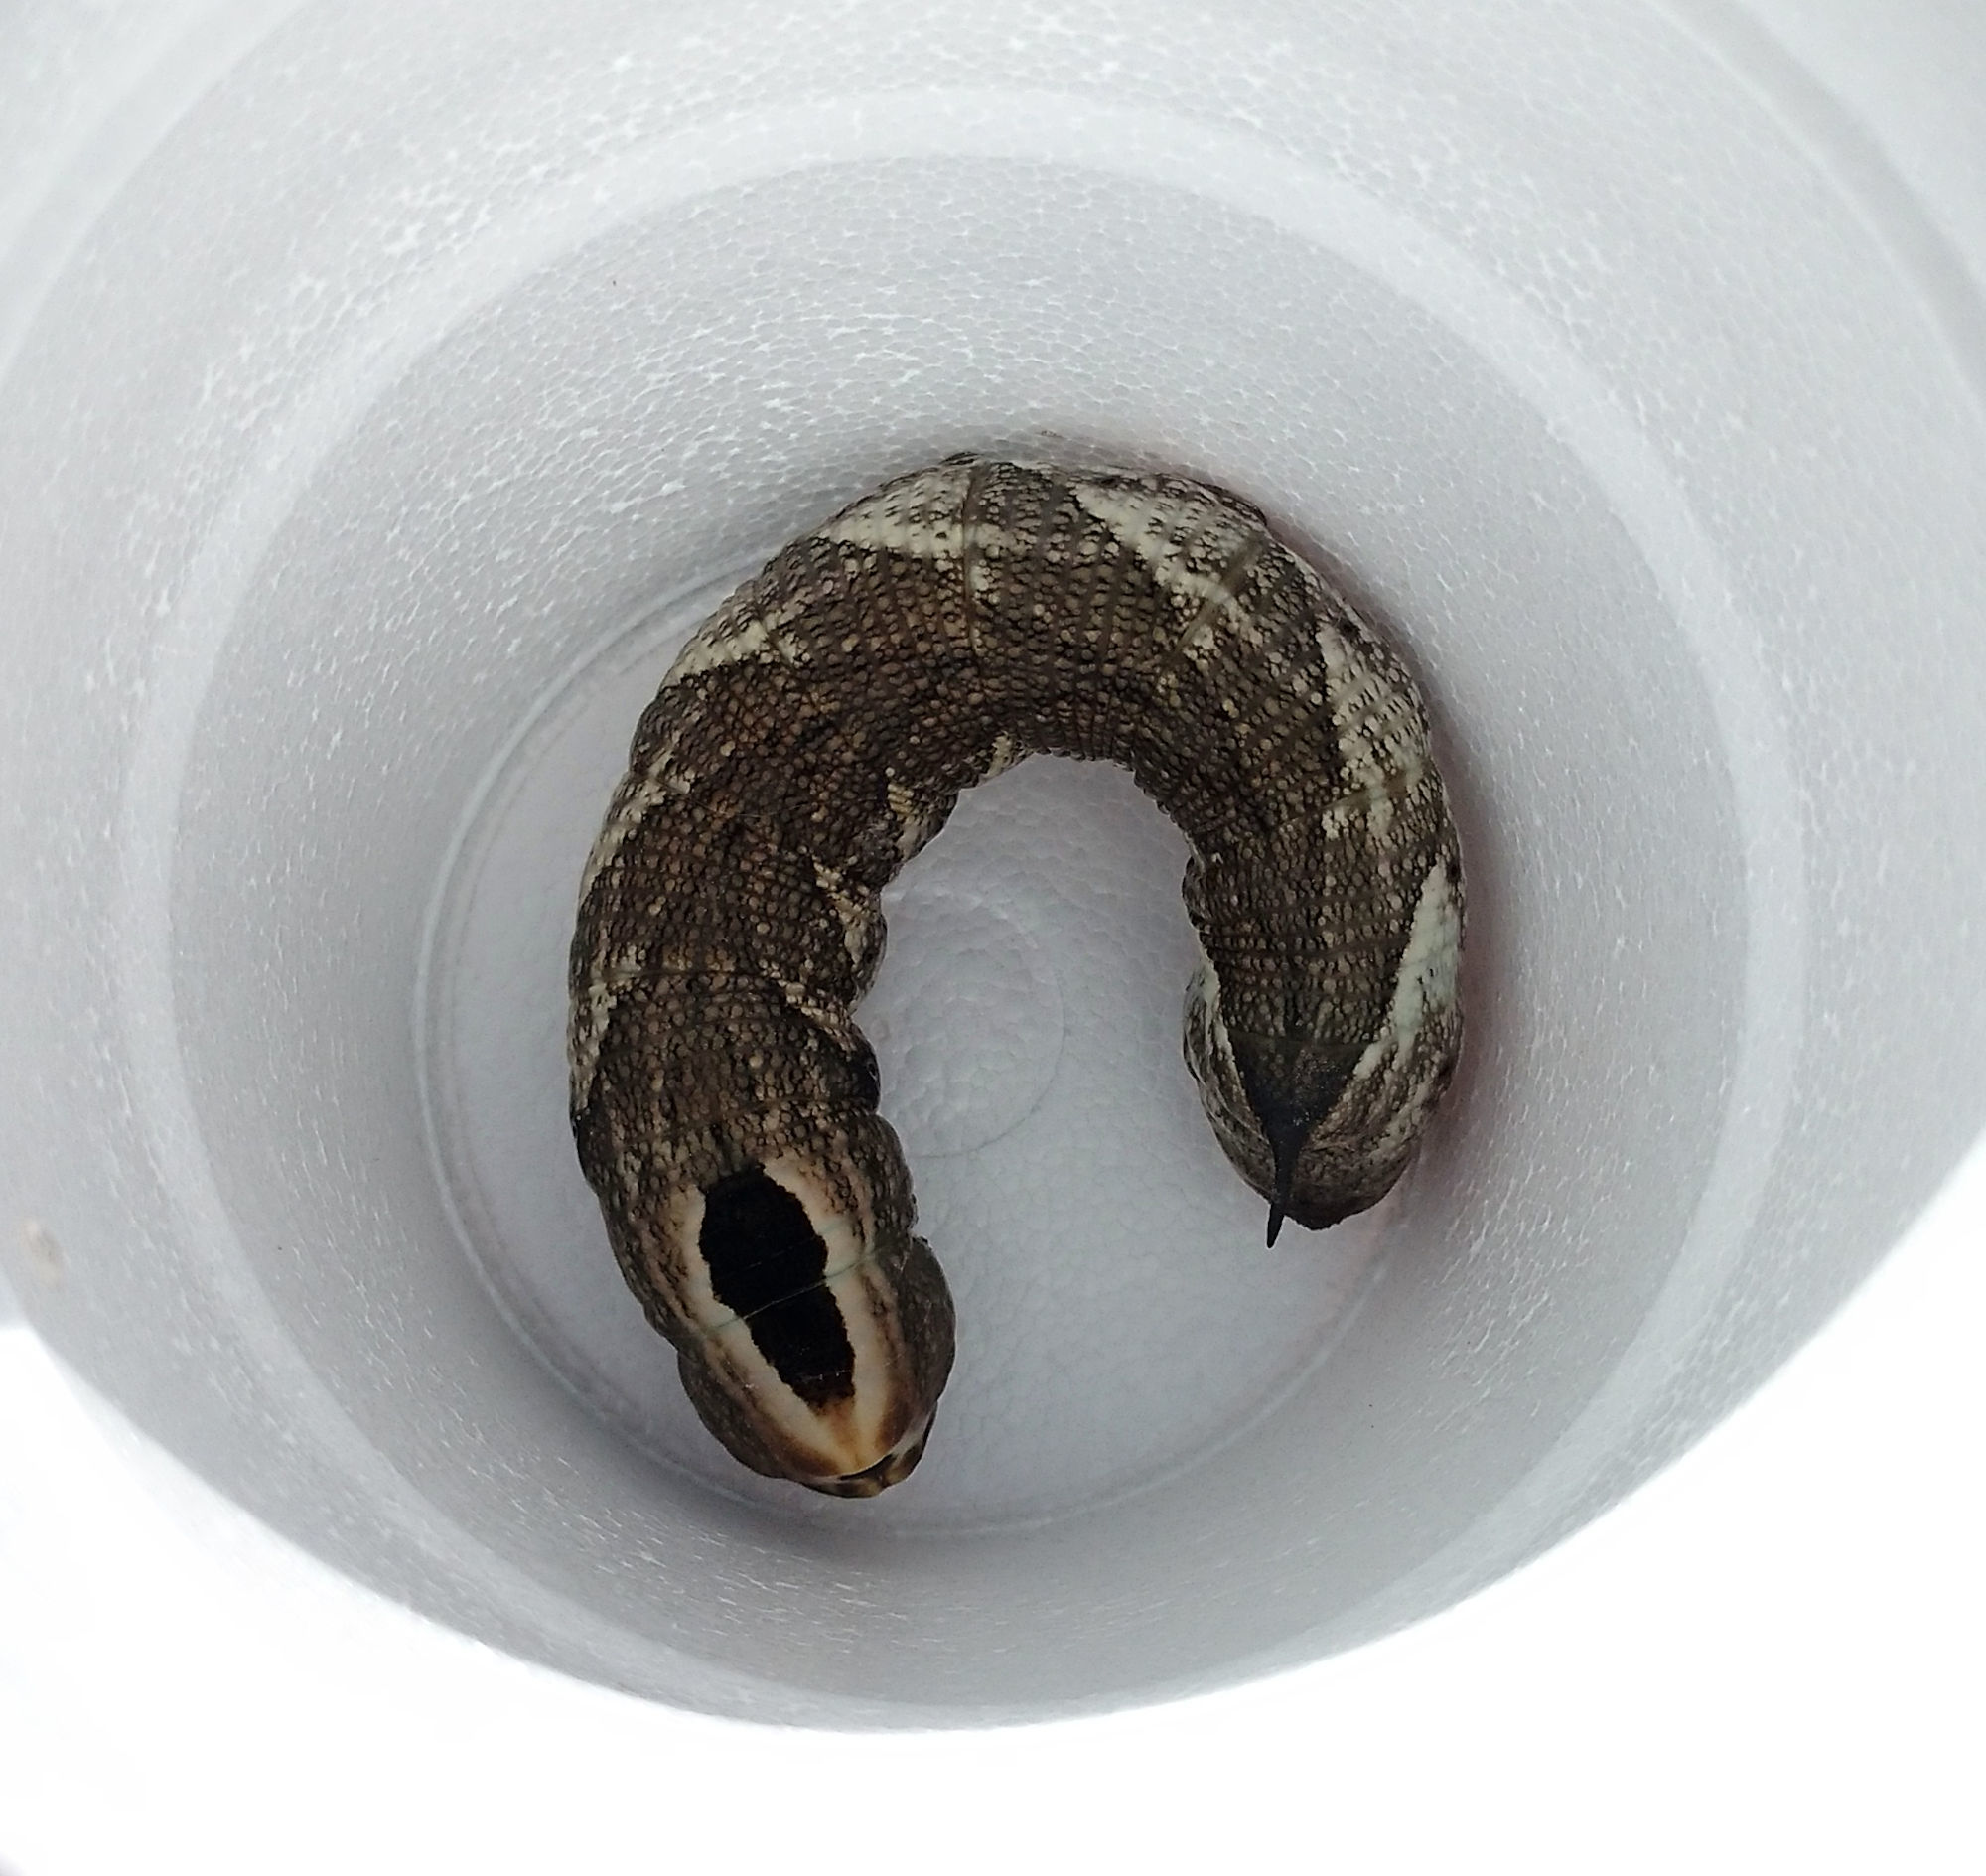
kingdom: Animalia
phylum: Arthropoda
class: Insecta
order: Lepidoptera
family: Sphingidae
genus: Lintneria
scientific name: Lintneria istar
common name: Istar sphinx
